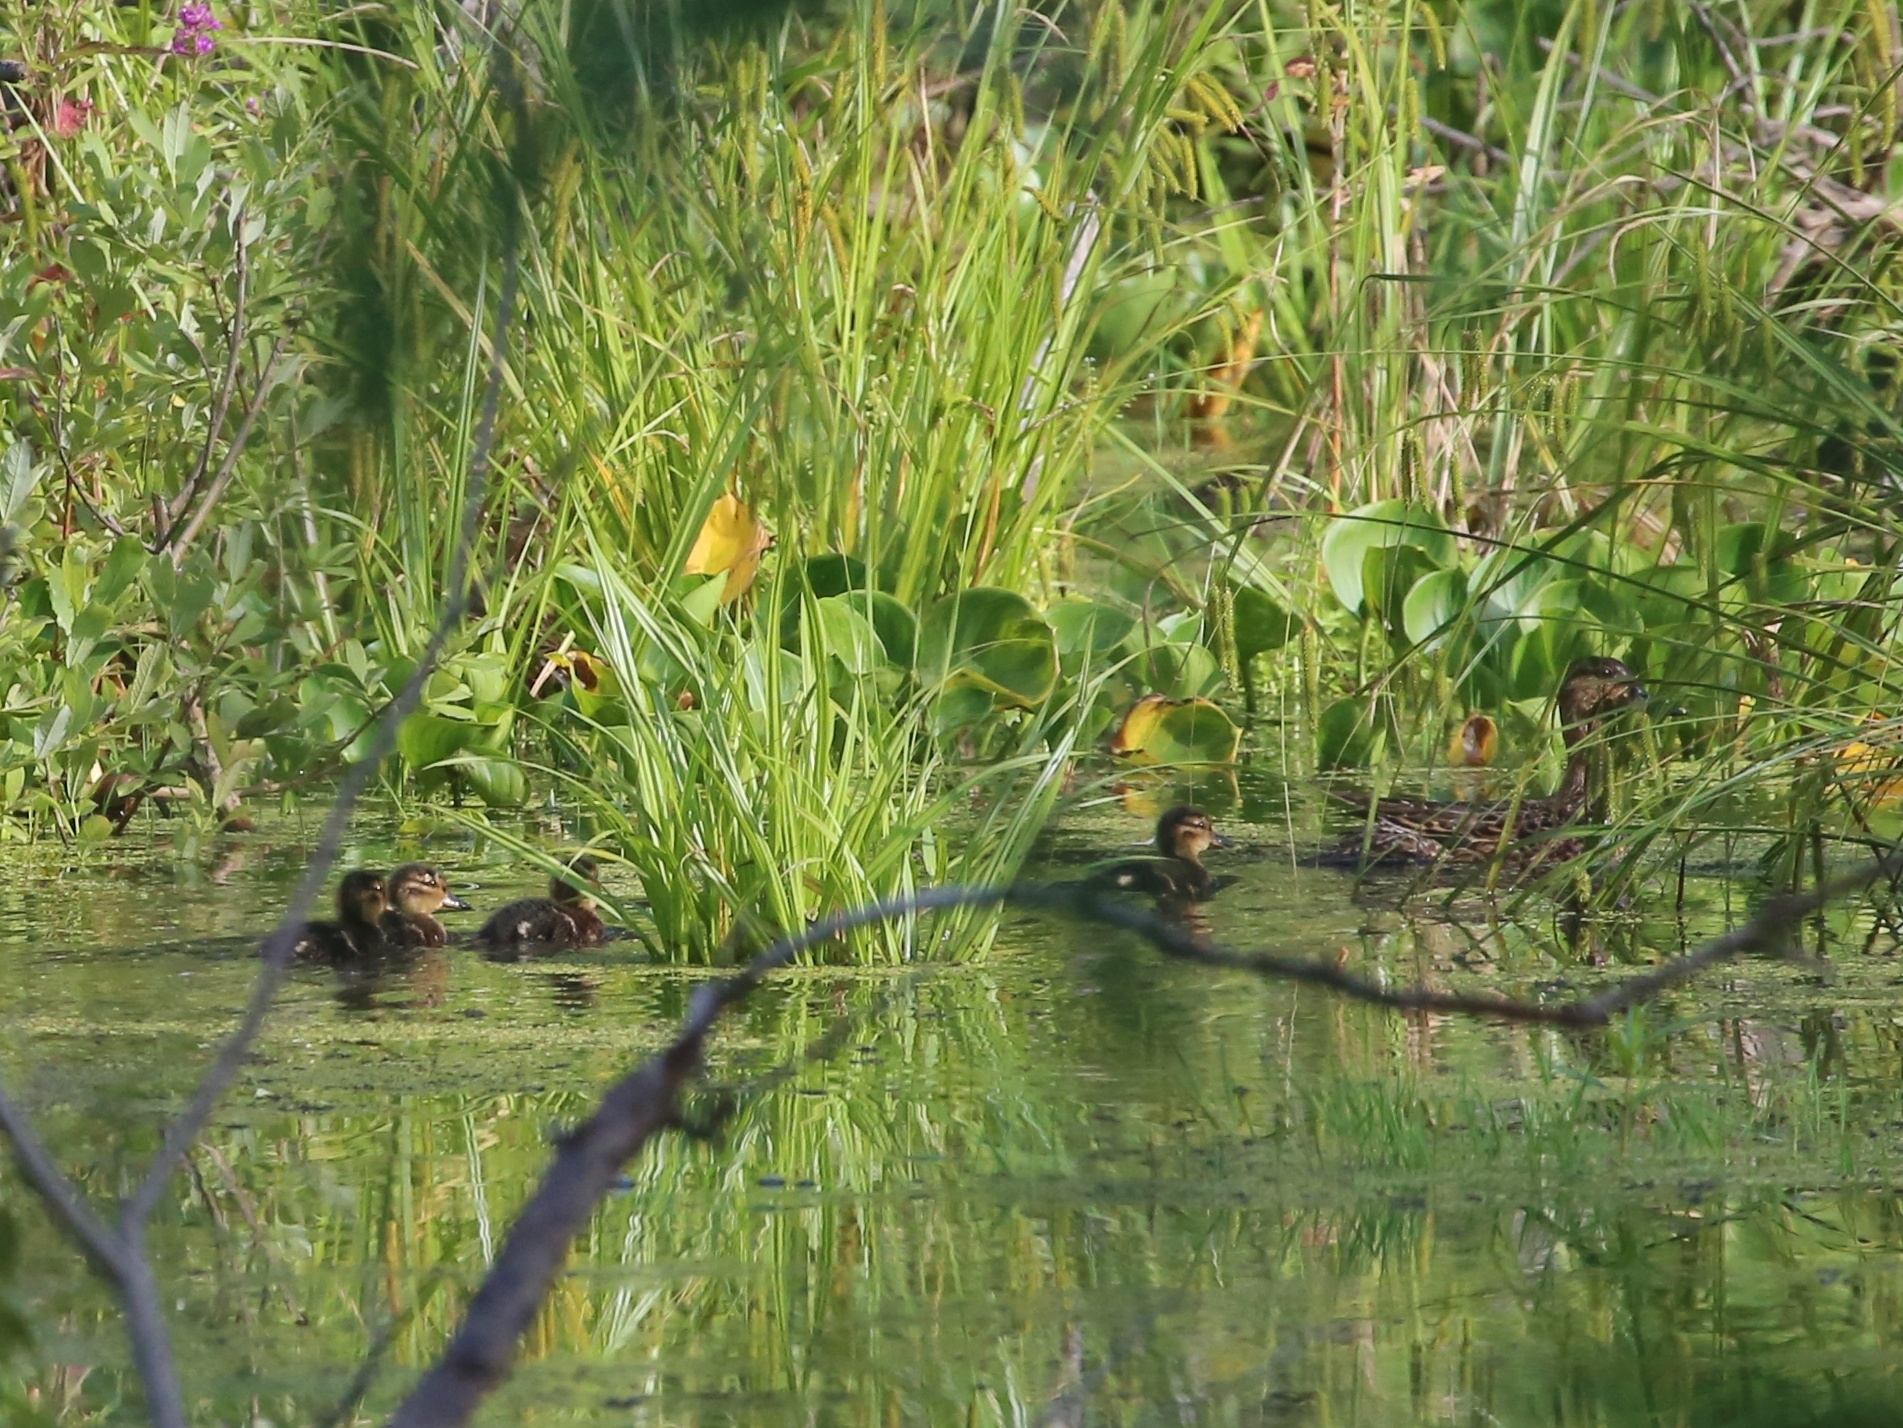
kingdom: Animalia
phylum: Chordata
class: Aves
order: Anseriformes
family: Anatidae
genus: Anas
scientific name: Anas crecca
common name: Eurasian teal
